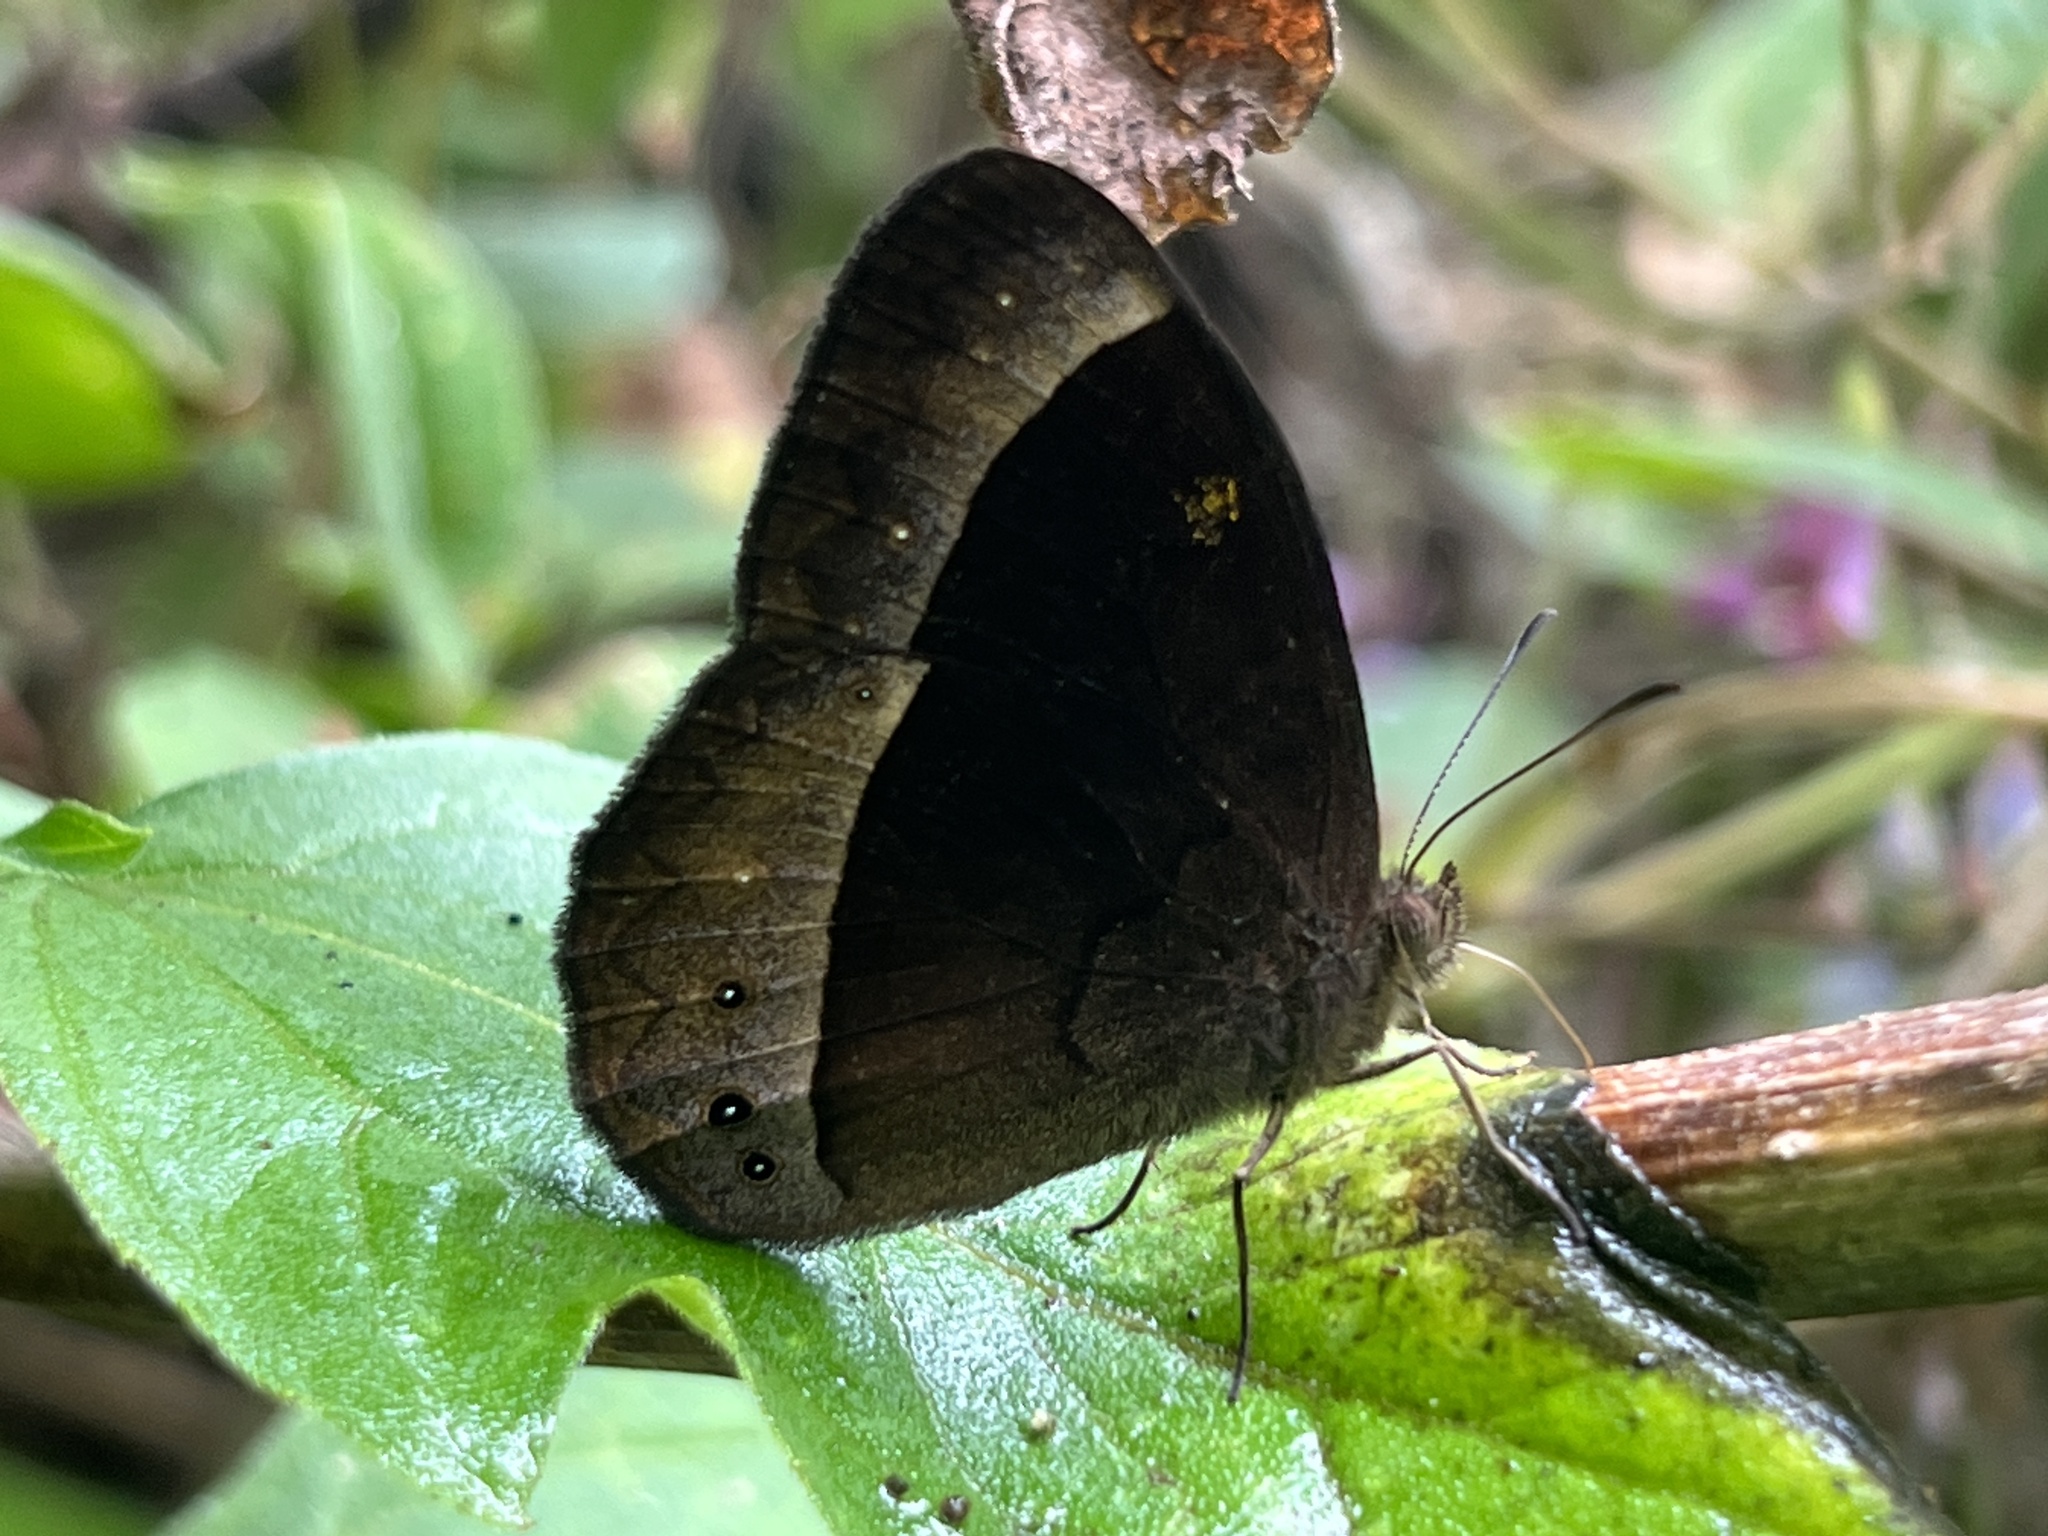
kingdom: Animalia
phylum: Arthropoda
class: Insecta
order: Lepidoptera
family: Nymphalidae
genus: Mycalesis
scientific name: Mycalesis aramis
